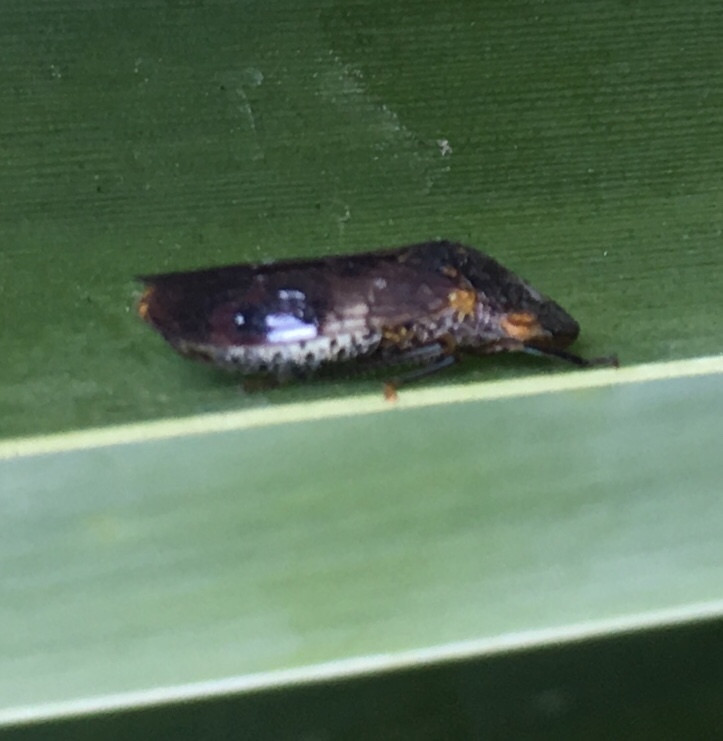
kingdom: Animalia
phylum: Arthropoda
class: Insecta
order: Hemiptera
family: Cicadellidae
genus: Homalodisca
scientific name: Homalodisca vitripennis
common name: Glassy-winged sharpshooter
